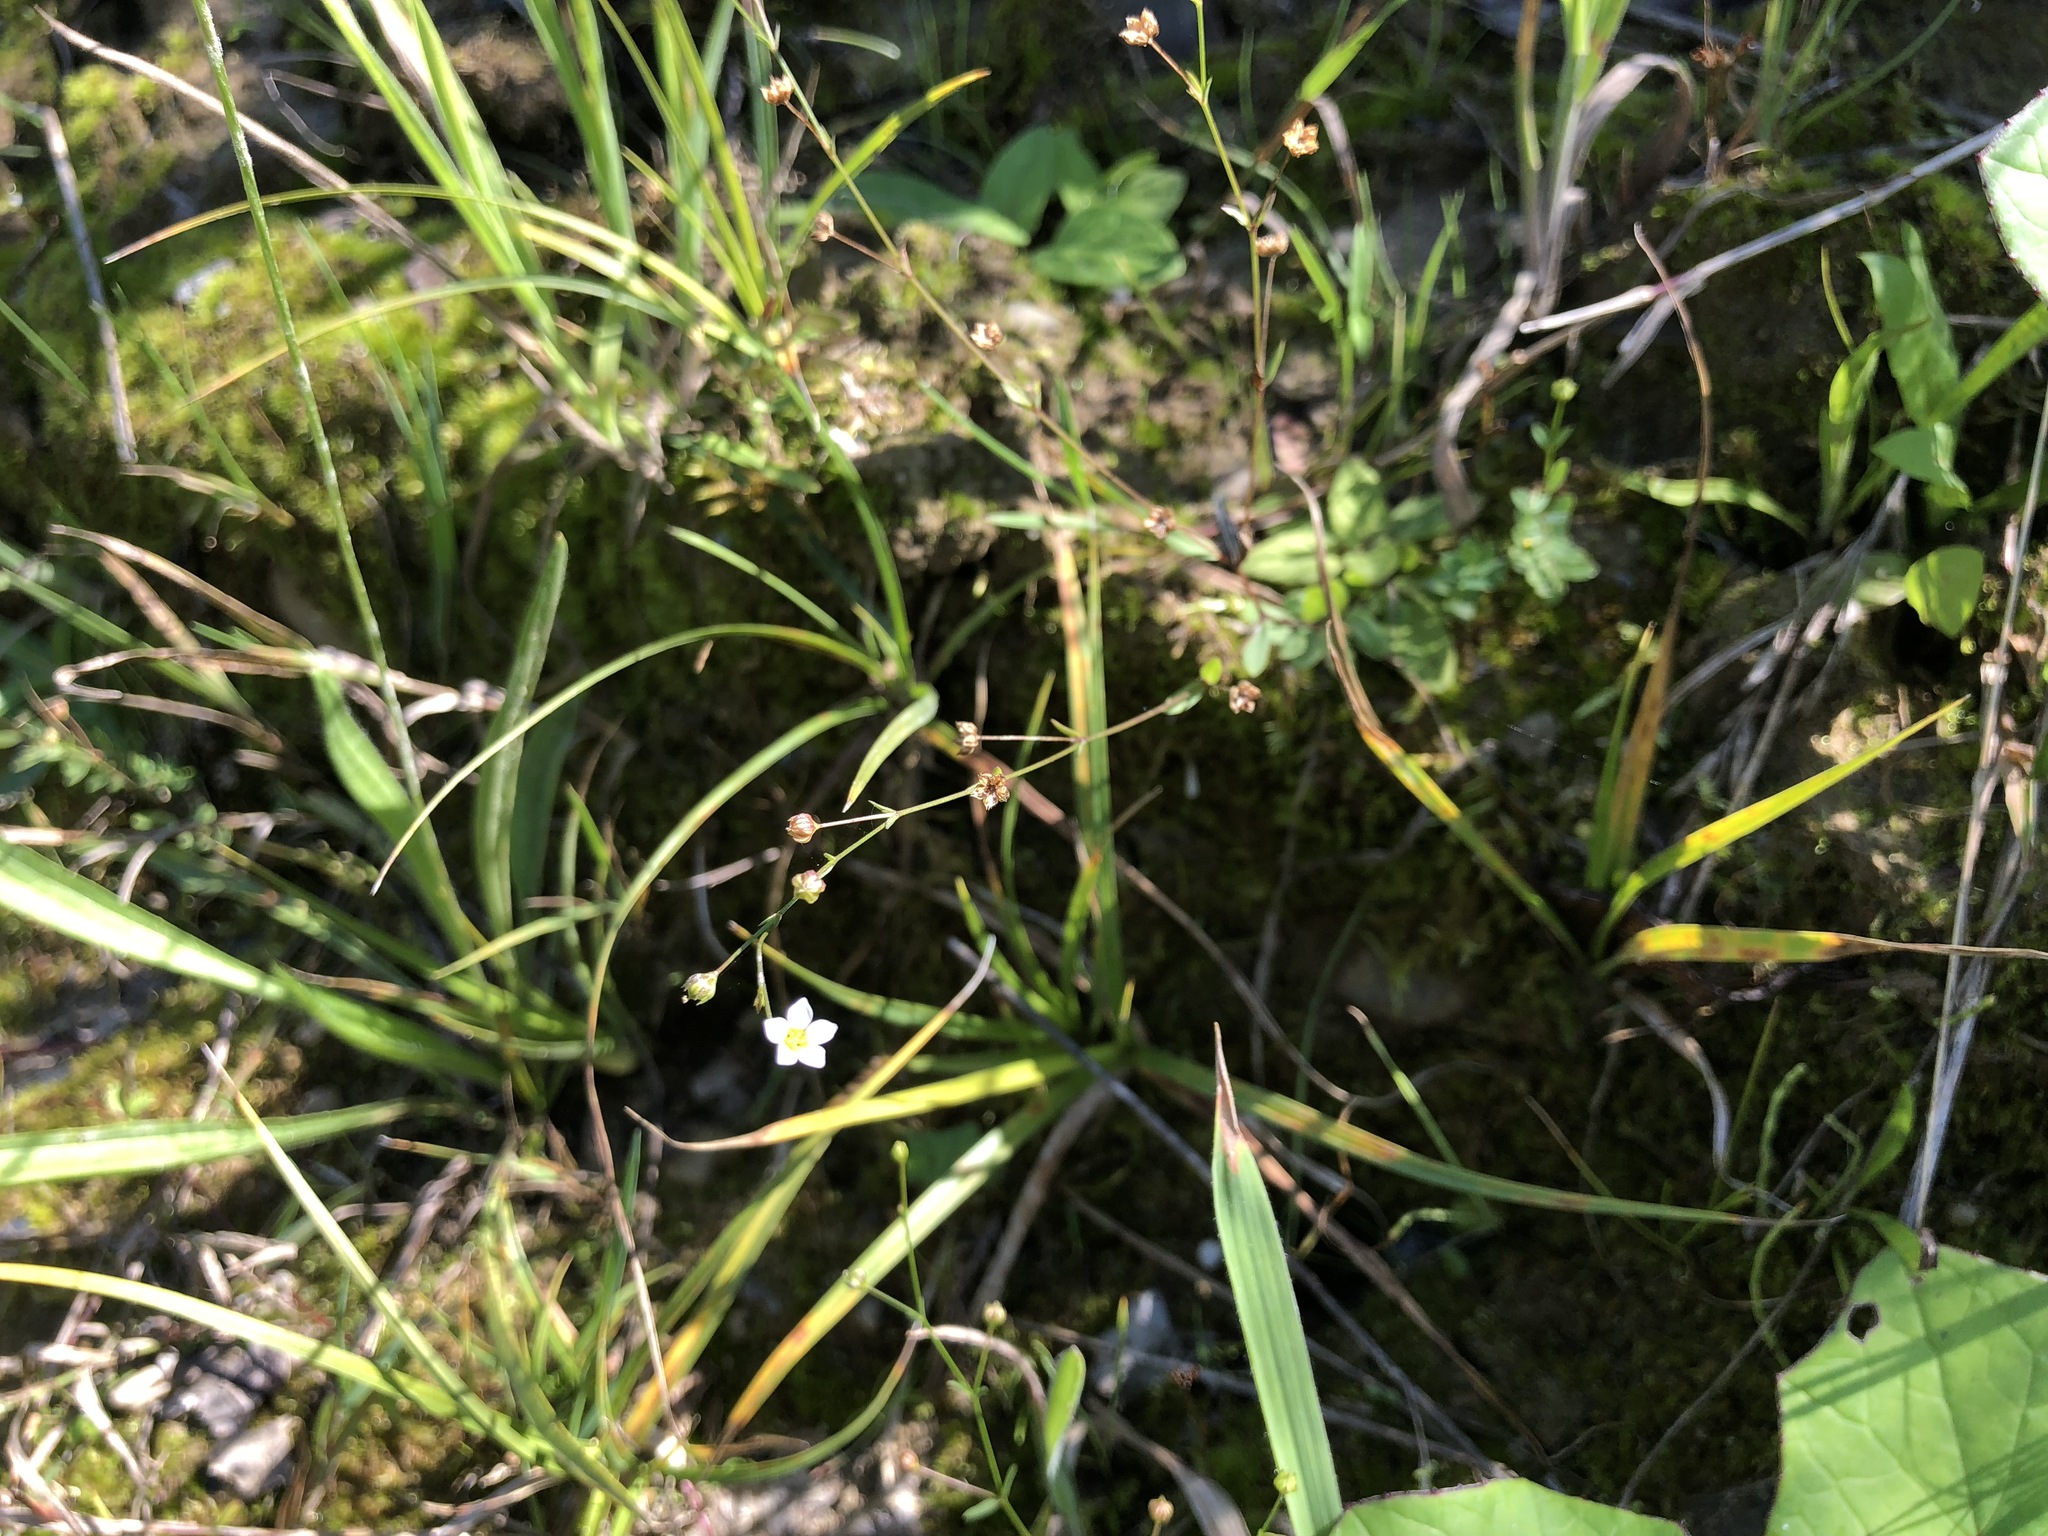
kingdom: Plantae
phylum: Tracheophyta
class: Magnoliopsida
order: Malpighiales
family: Linaceae
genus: Linum
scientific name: Linum catharticum
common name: Fairy flax
